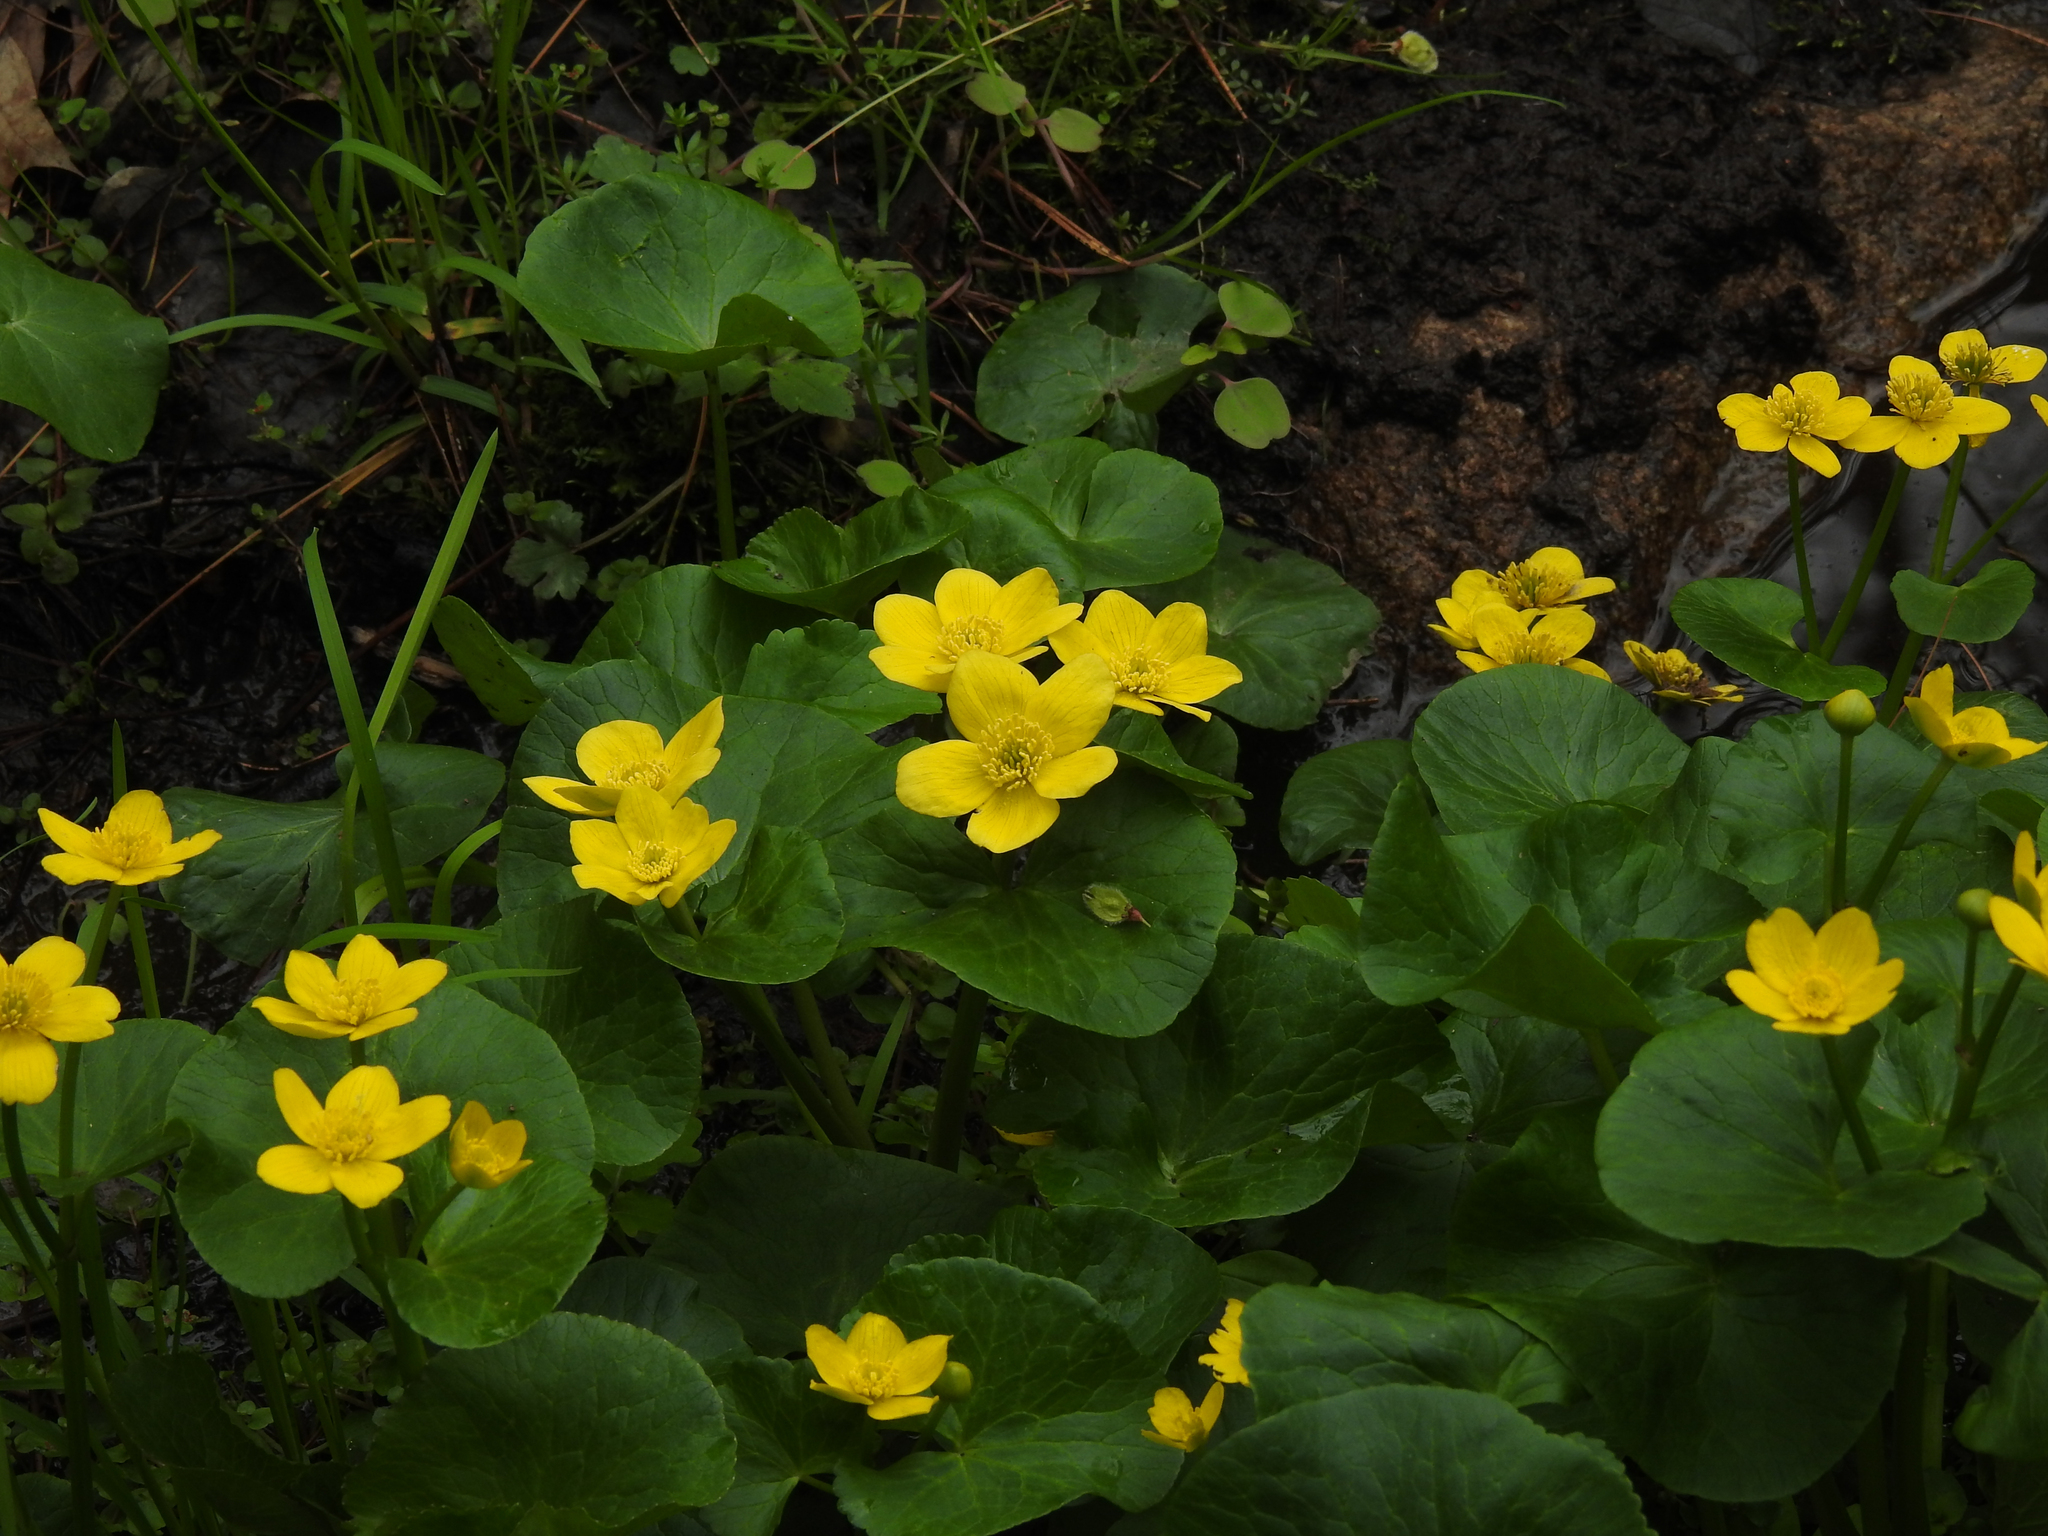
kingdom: Plantae
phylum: Tracheophyta
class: Magnoliopsida
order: Ranunculales
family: Ranunculaceae
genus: Caltha
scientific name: Caltha palustris
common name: Marsh marigold
